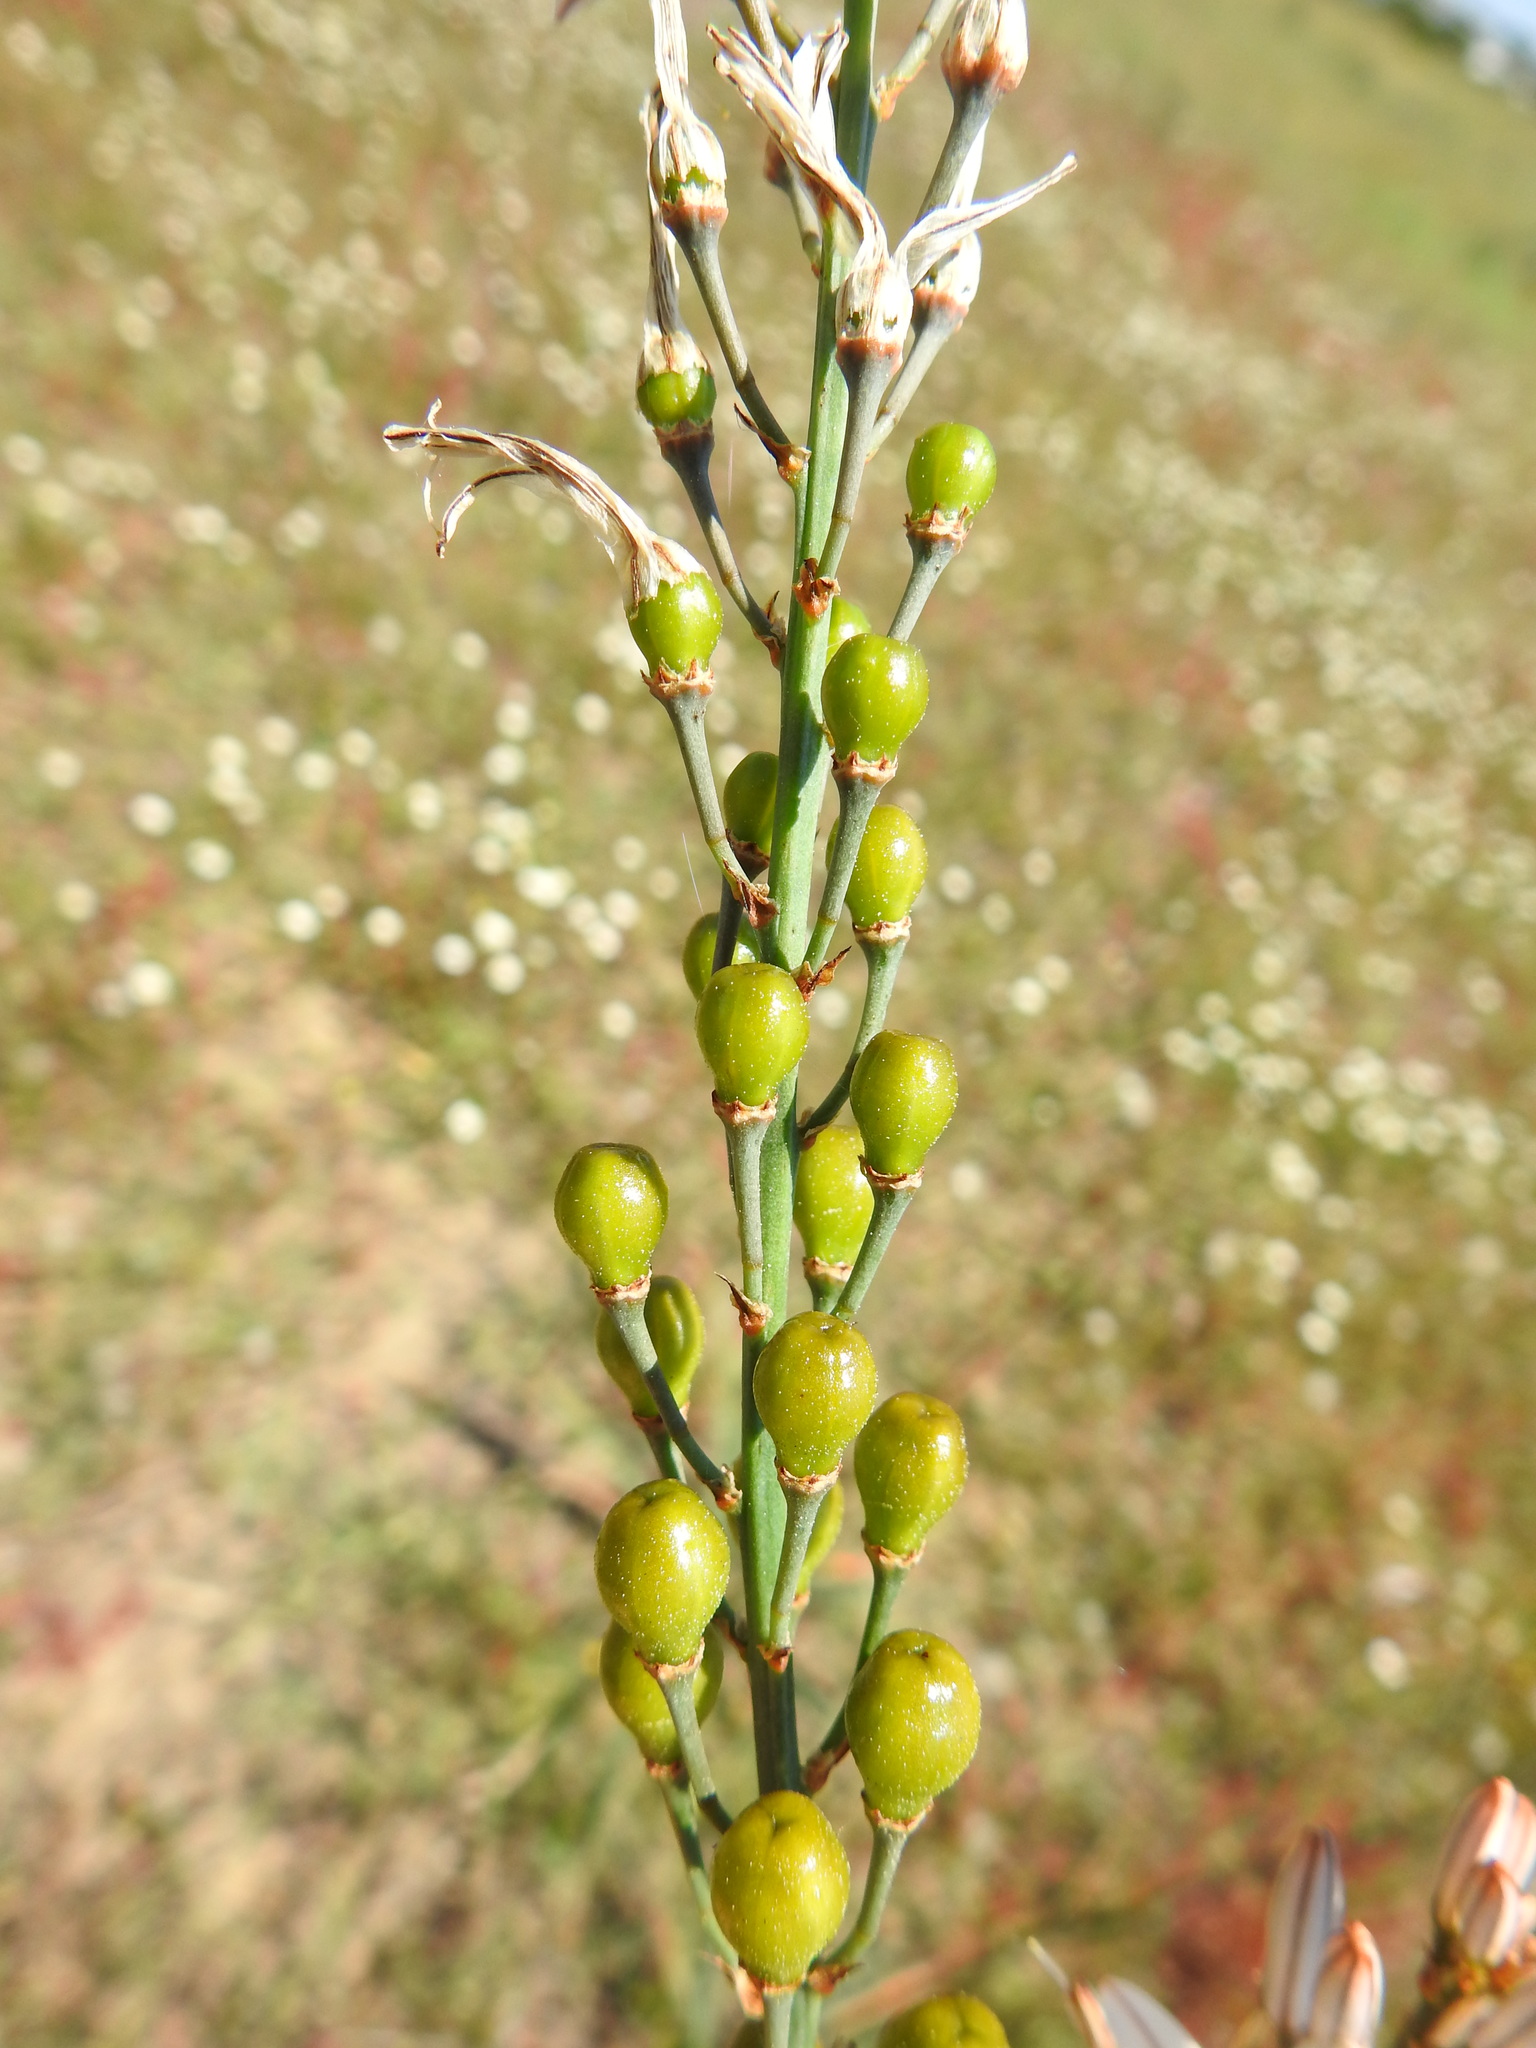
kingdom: Plantae
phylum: Tracheophyta
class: Liliopsida
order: Asparagales
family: Asphodelaceae
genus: Asphodelus
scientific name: Asphodelus serotinus
